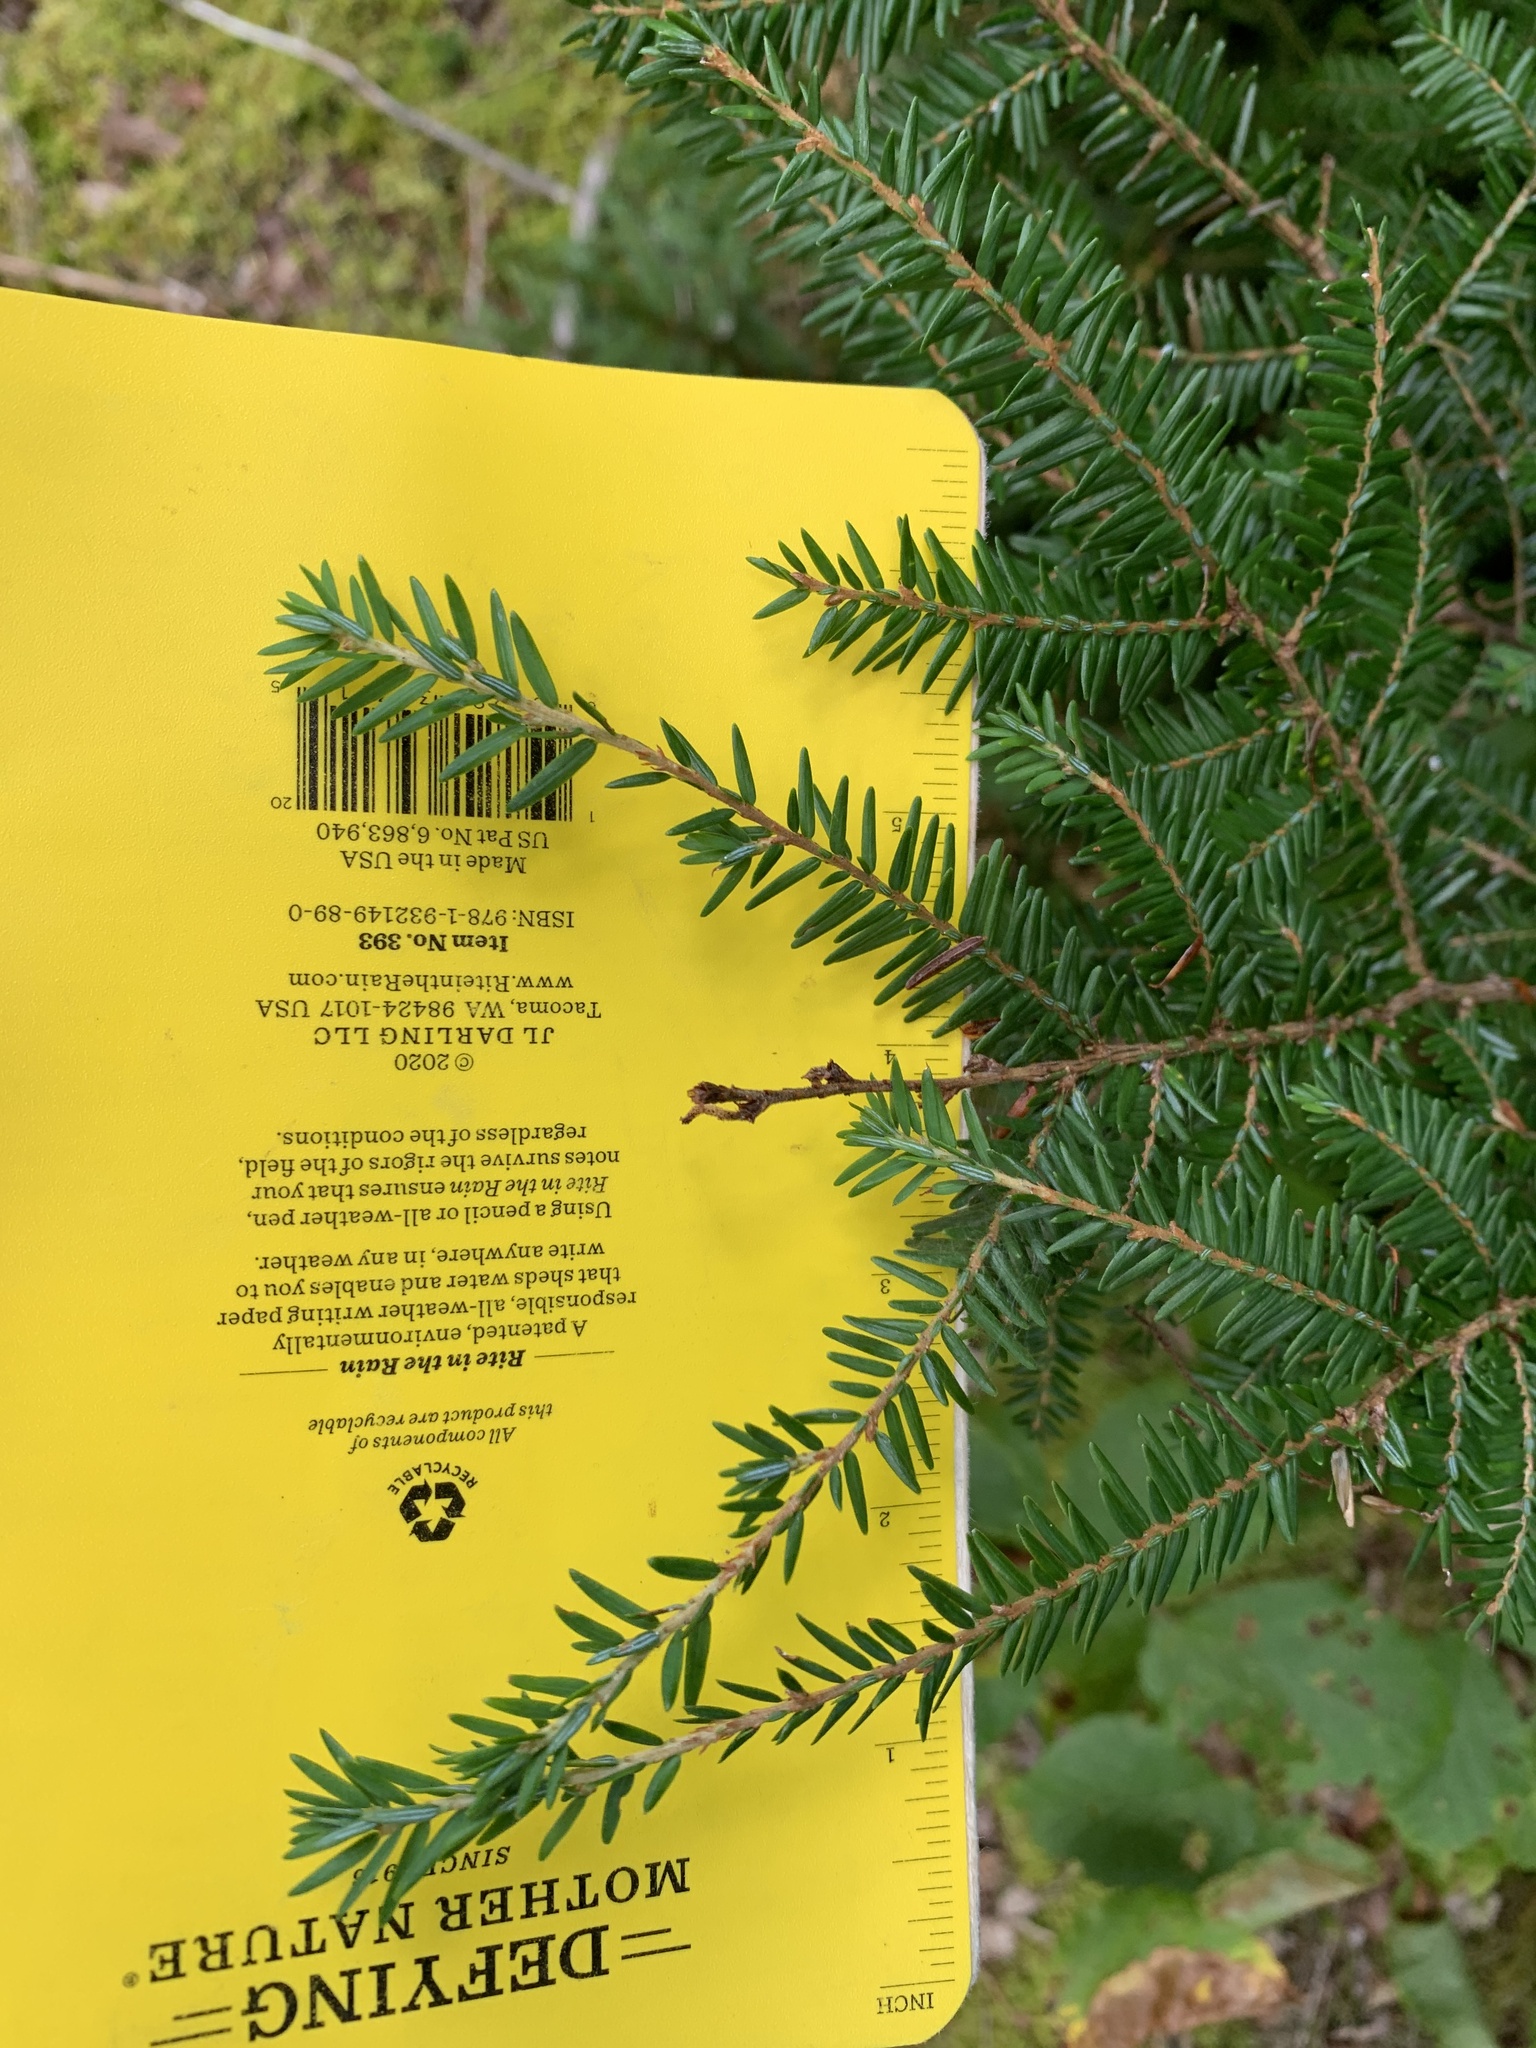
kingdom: Plantae
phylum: Tracheophyta
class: Pinopsida
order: Pinales
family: Pinaceae
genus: Tsuga
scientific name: Tsuga canadensis
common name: Eastern hemlock
